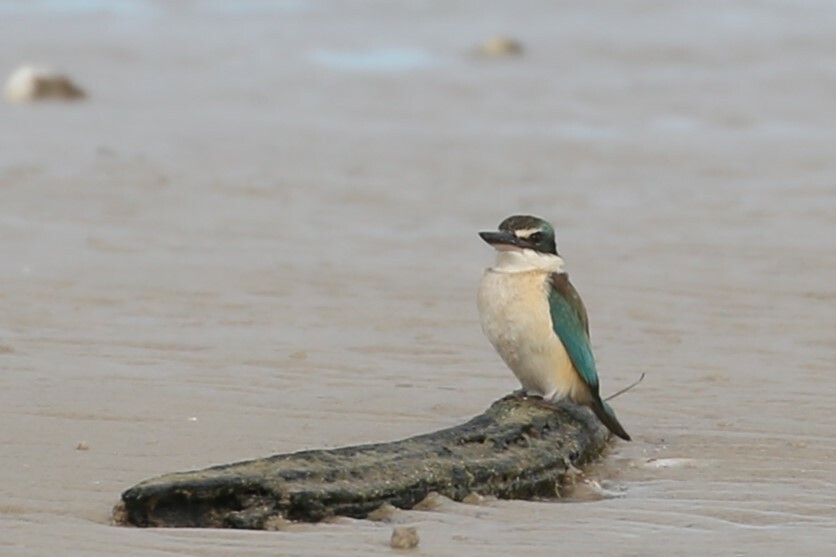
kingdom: Animalia
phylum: Chordata
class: Aves
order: Coraciiformes
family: Alcedinidae
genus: Todiramphus
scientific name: Todiramphus sanctus
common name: Sacred kingfisher
